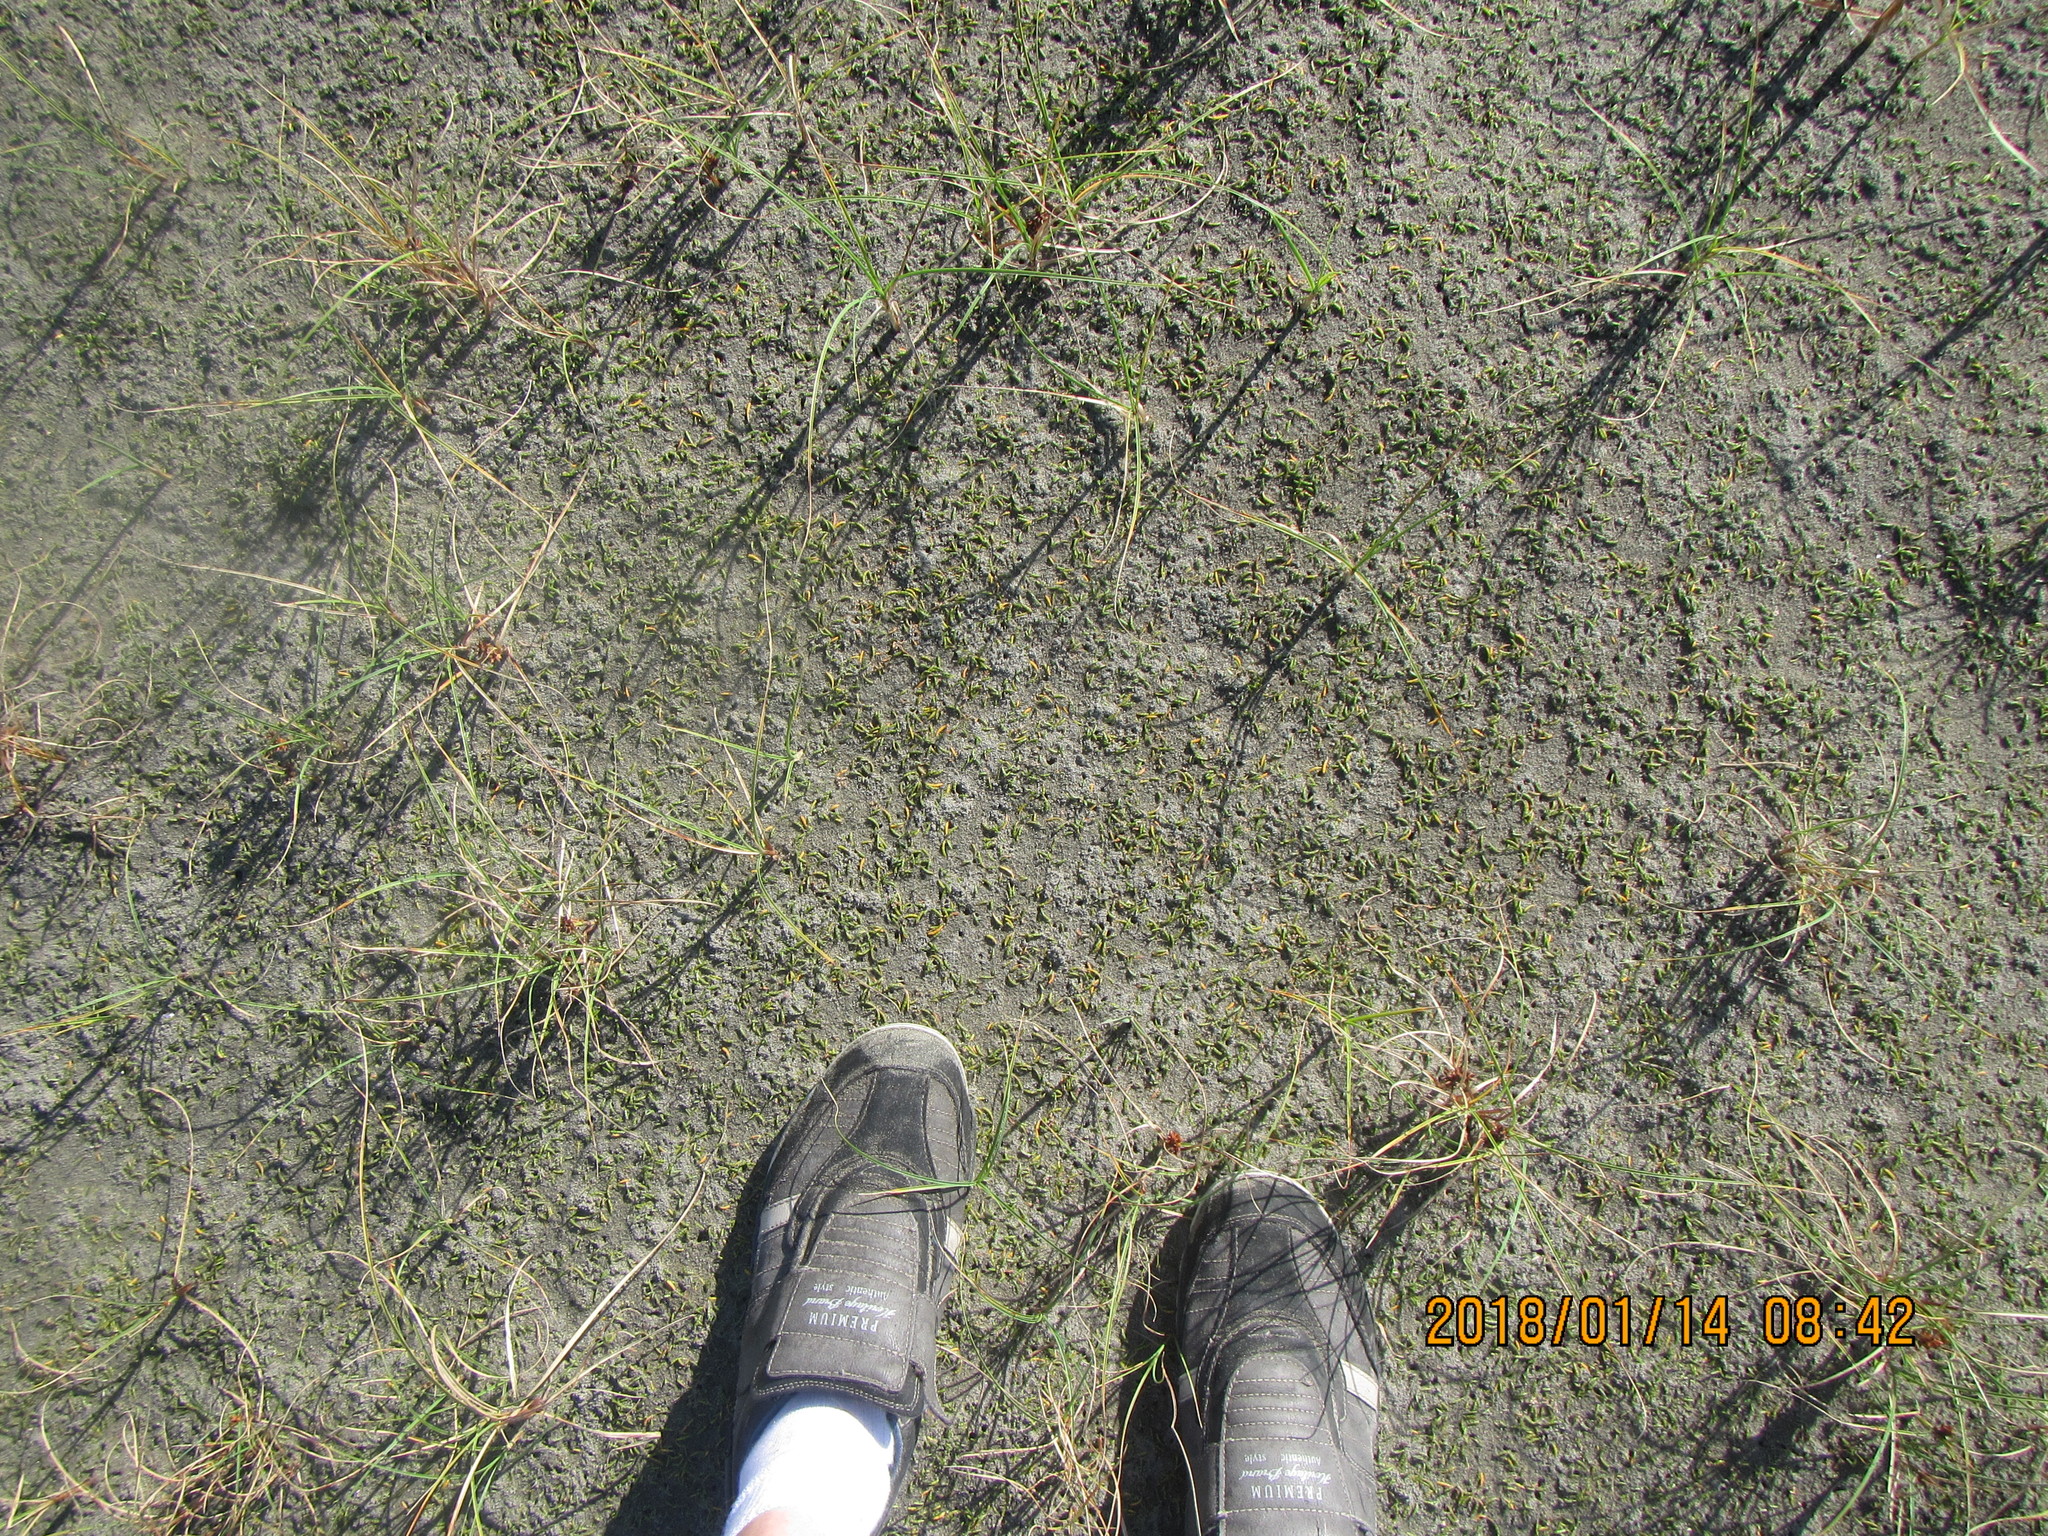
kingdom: Plantae
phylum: Tracheophyta
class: Magnoliopsida
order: Apiales
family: Apiaceae
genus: Lilaeopsis
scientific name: Lilaeopsis novae-zelandiae
